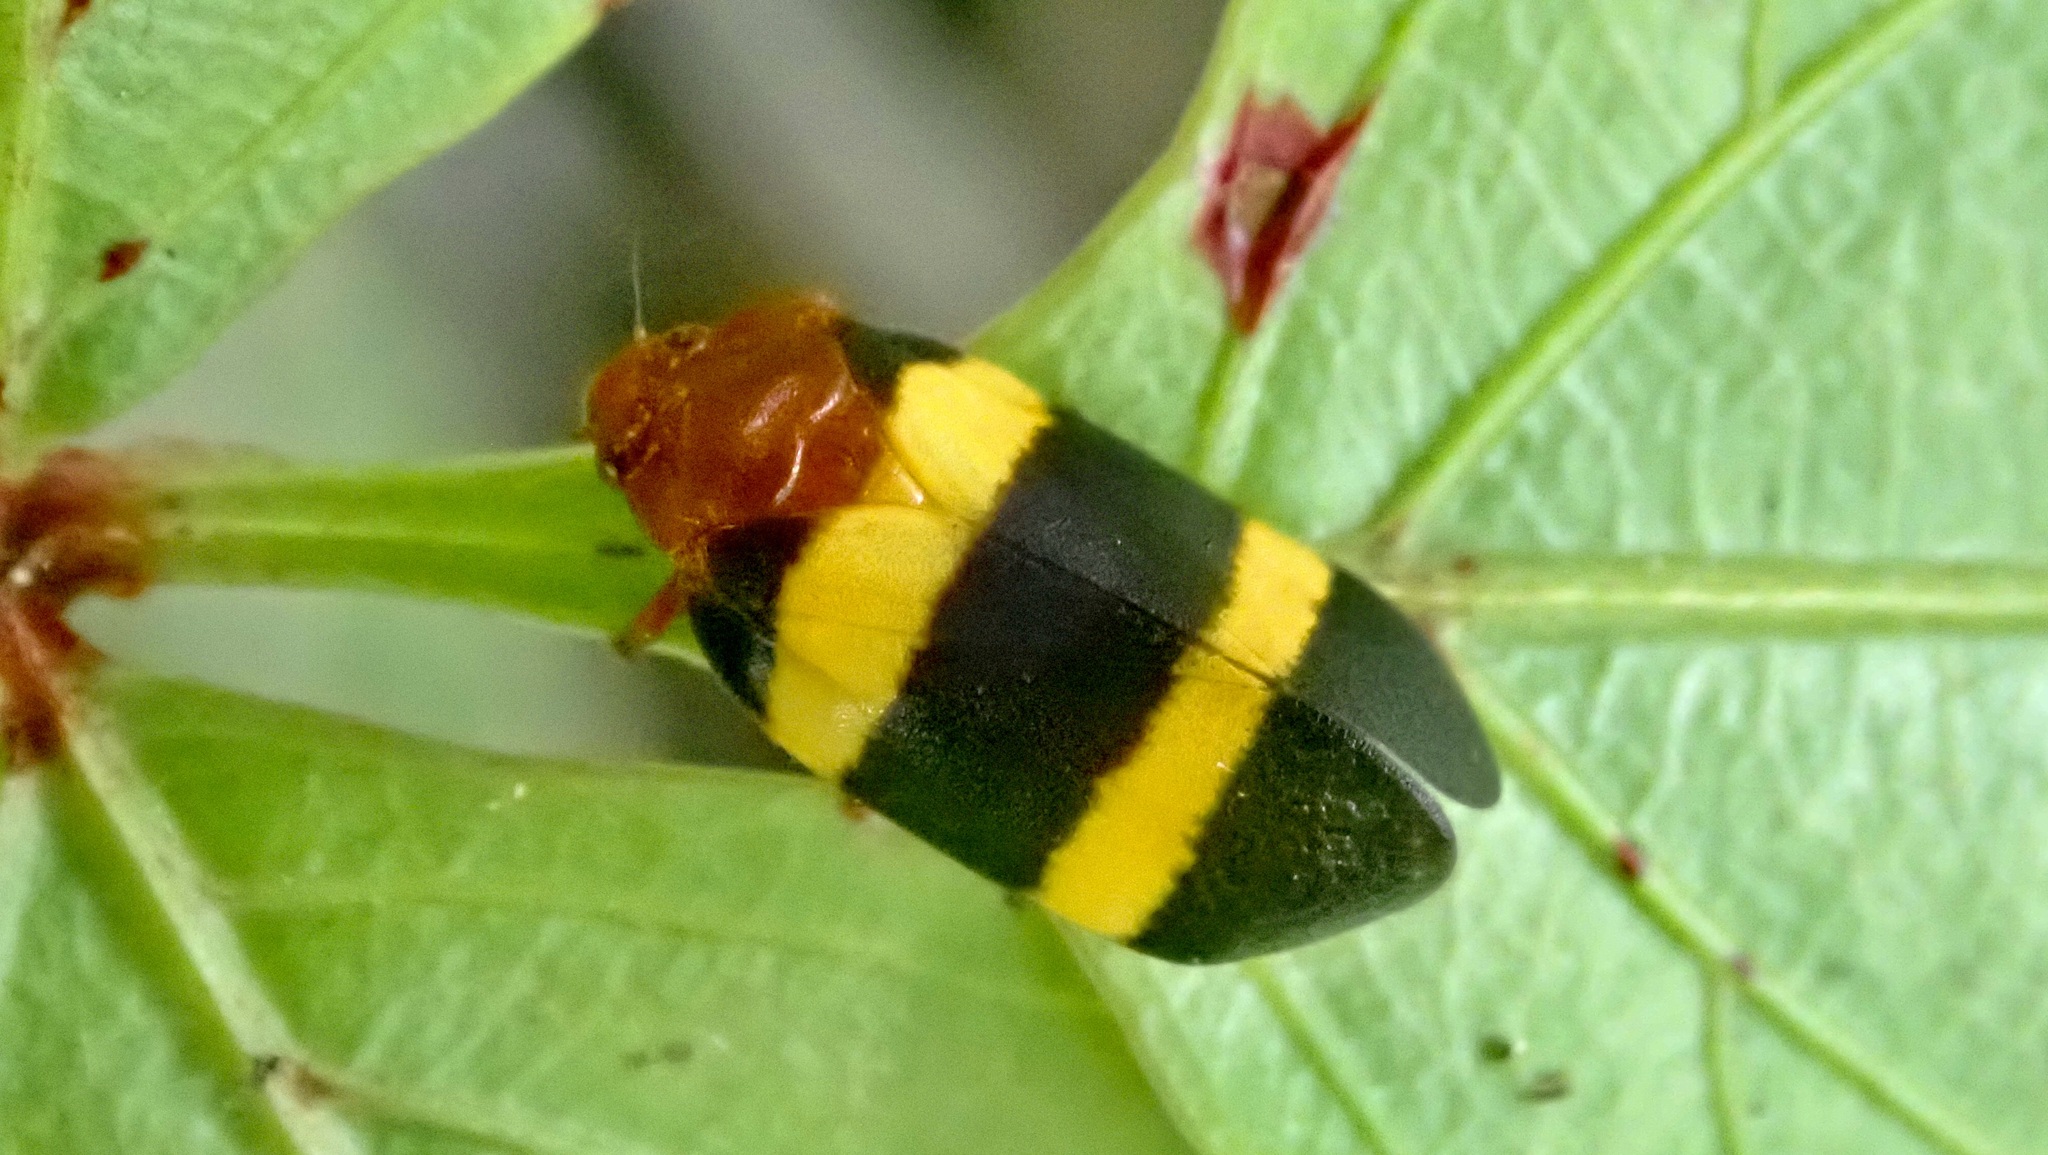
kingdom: Animalia
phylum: Arthropoda
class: Insecta
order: Hemiptera
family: Cercopidae
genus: Sphenorhina
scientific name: Sphenorhina rubra
